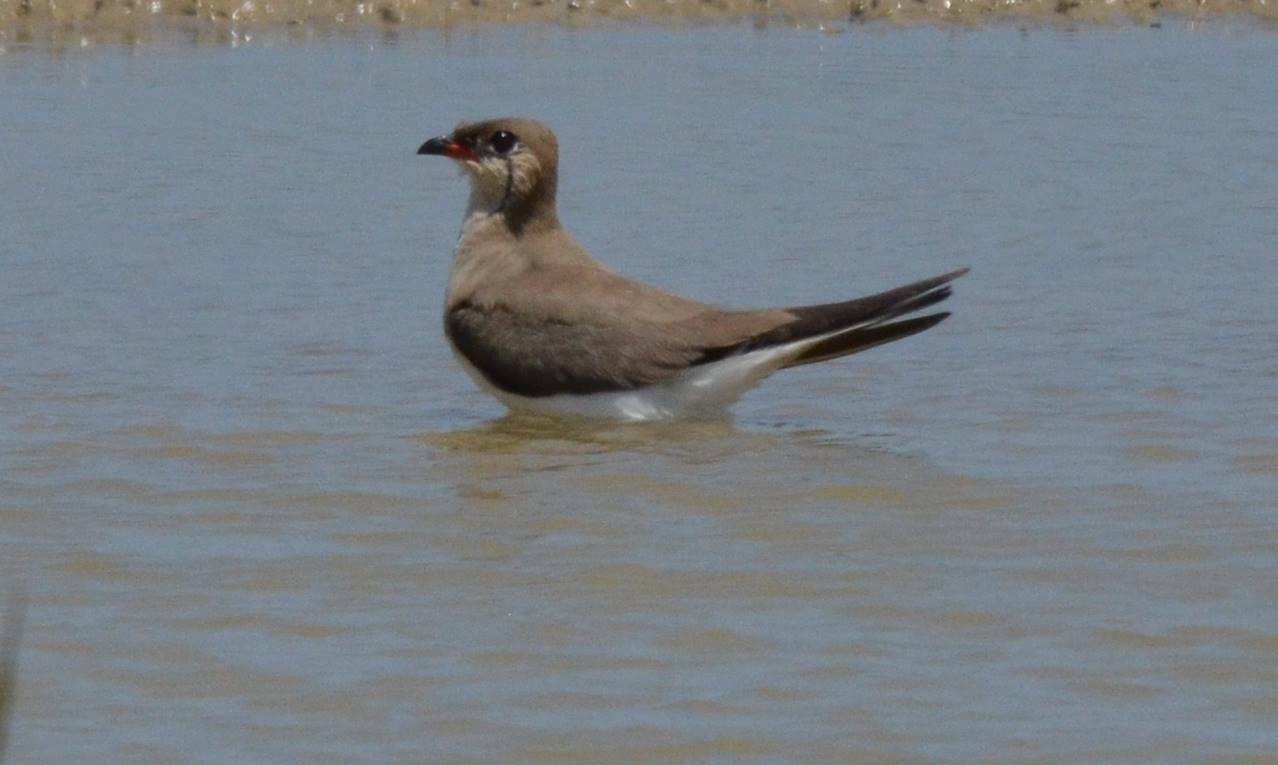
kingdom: Animalia
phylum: Chordata
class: Aves
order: Charadriiformes
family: Glareolidae
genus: Glareola
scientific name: Glareola pratincola
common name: Collared pratincole
